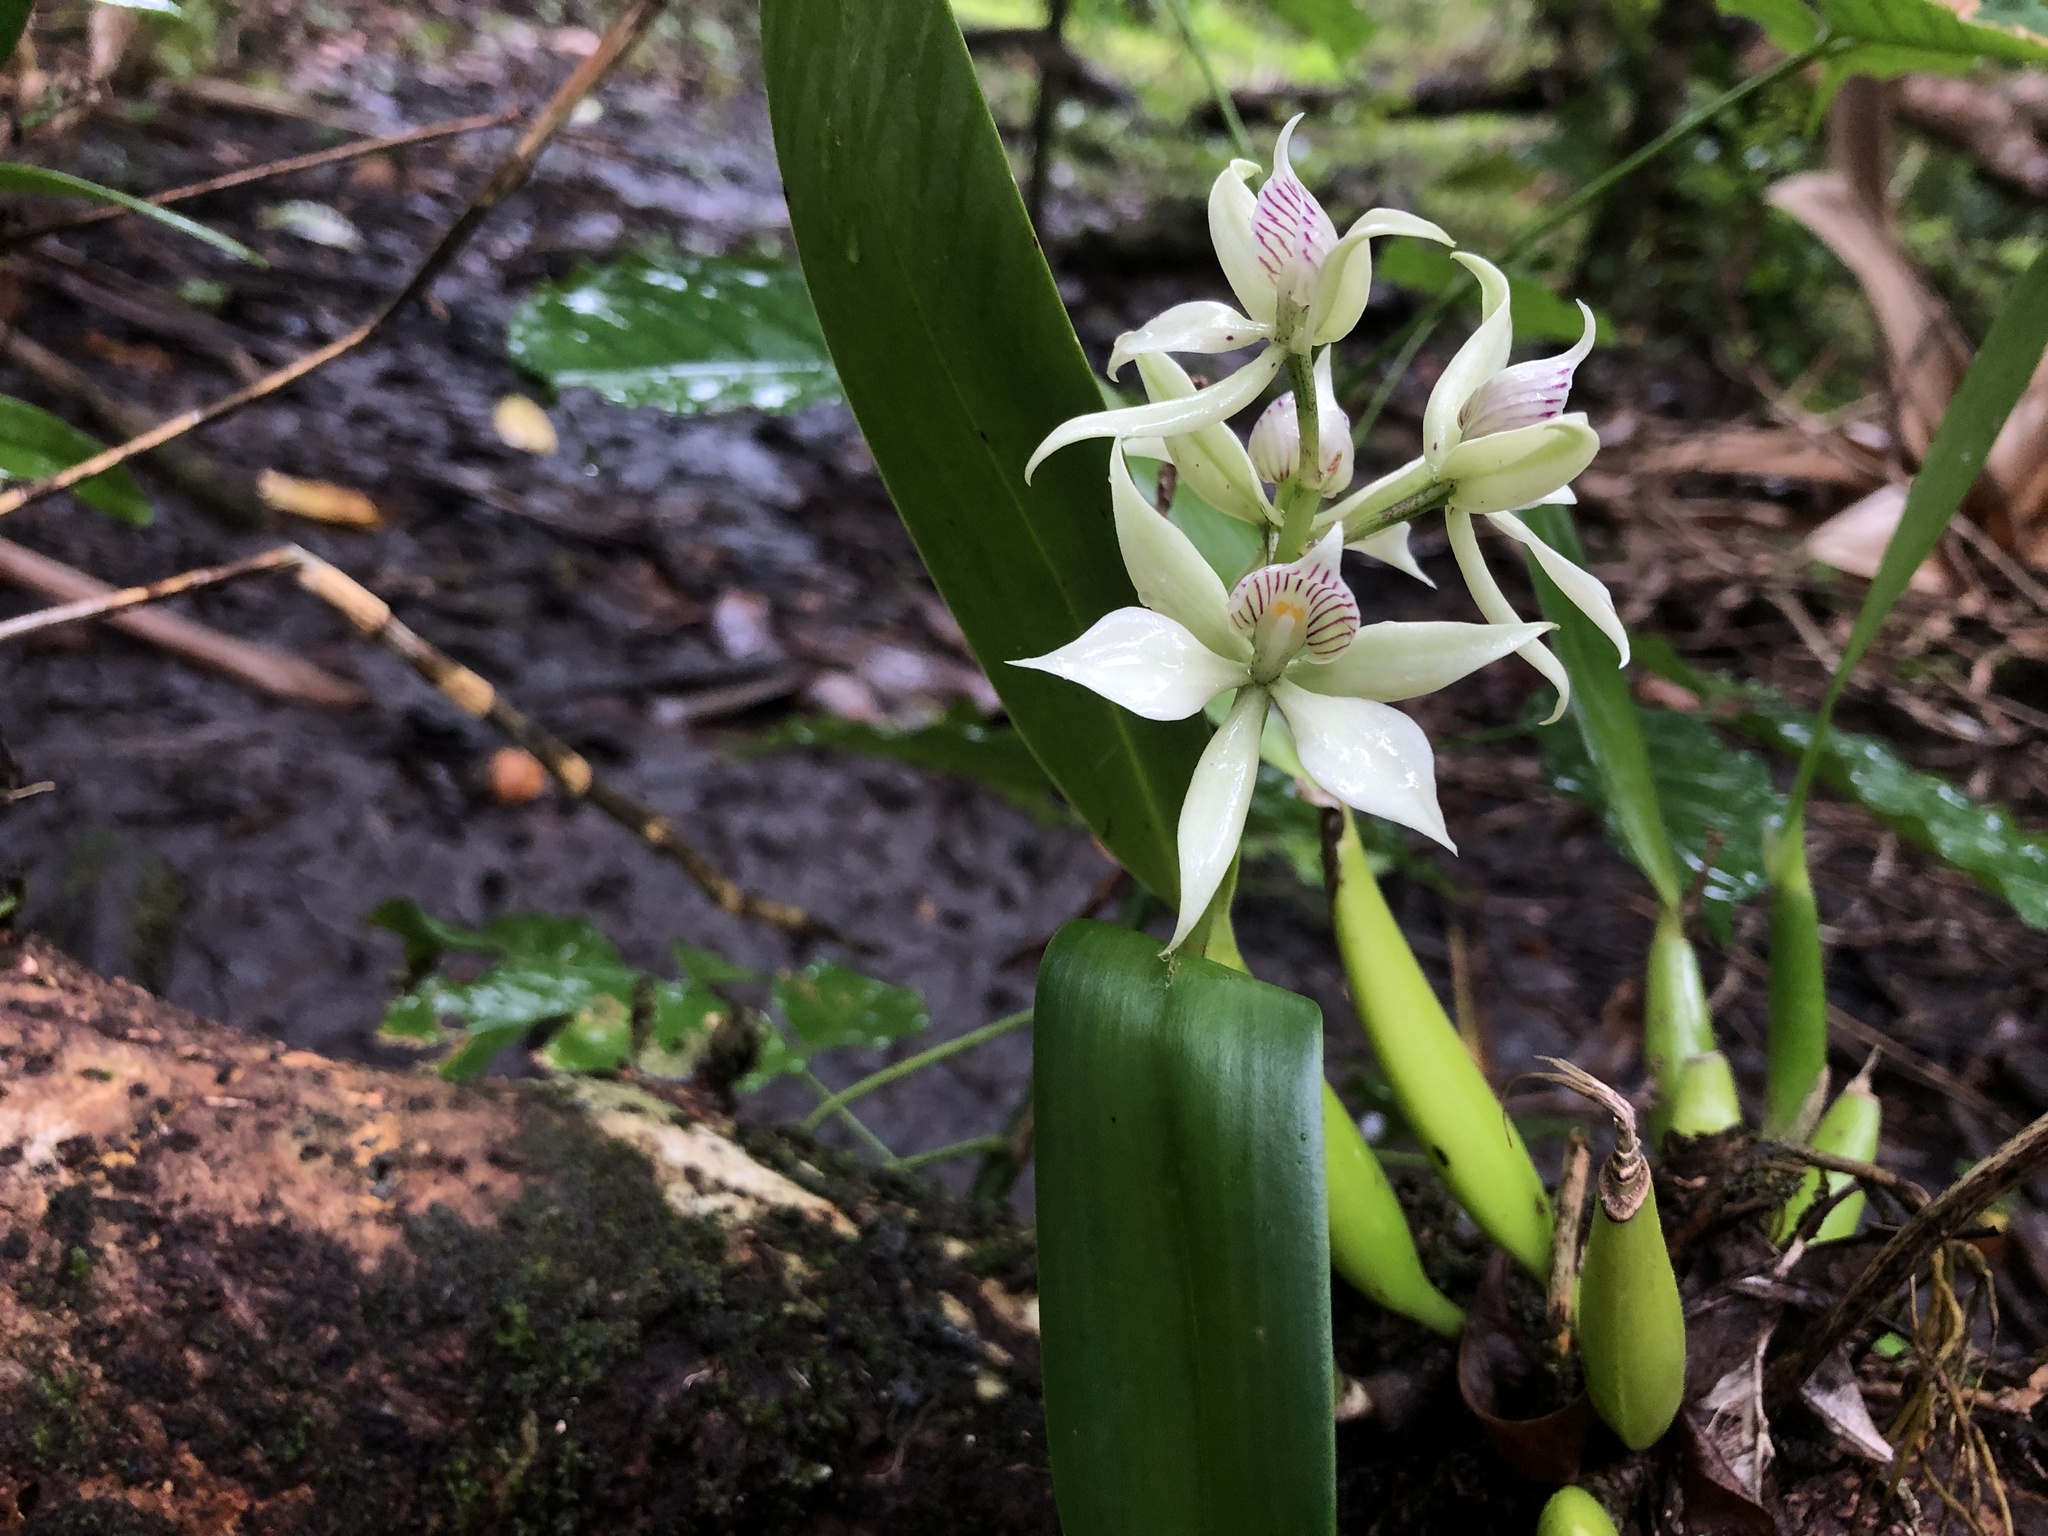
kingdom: Plantae
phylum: Tracheophyta
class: Liliopsida
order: Asparagales
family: Orchidaceae
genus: Prosthechea
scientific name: Prosthechea fragrans
